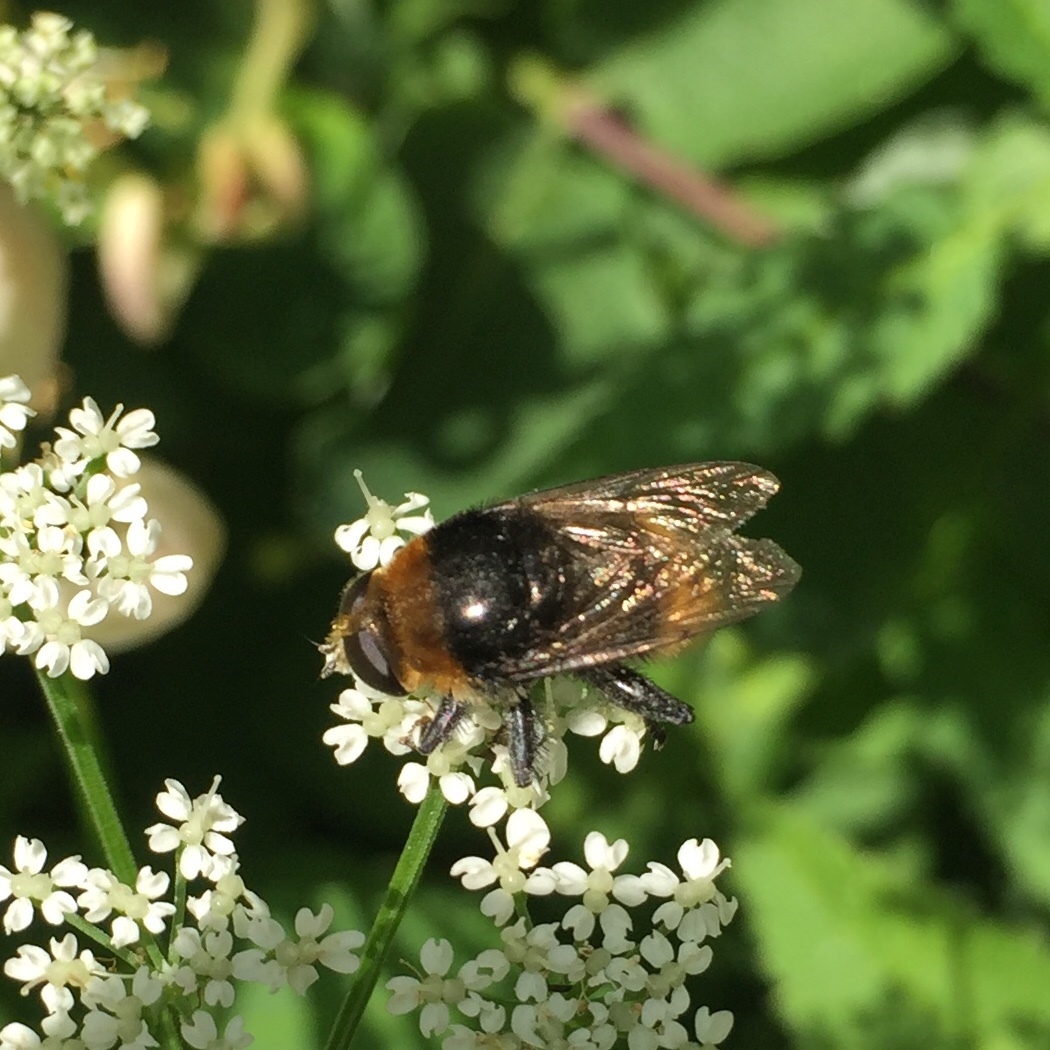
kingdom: Animalia
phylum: Arthropoda
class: Insecta
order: Diptera
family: Syrphidae
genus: Merodon
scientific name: Merodon equestris
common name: Greater bulb-fly
